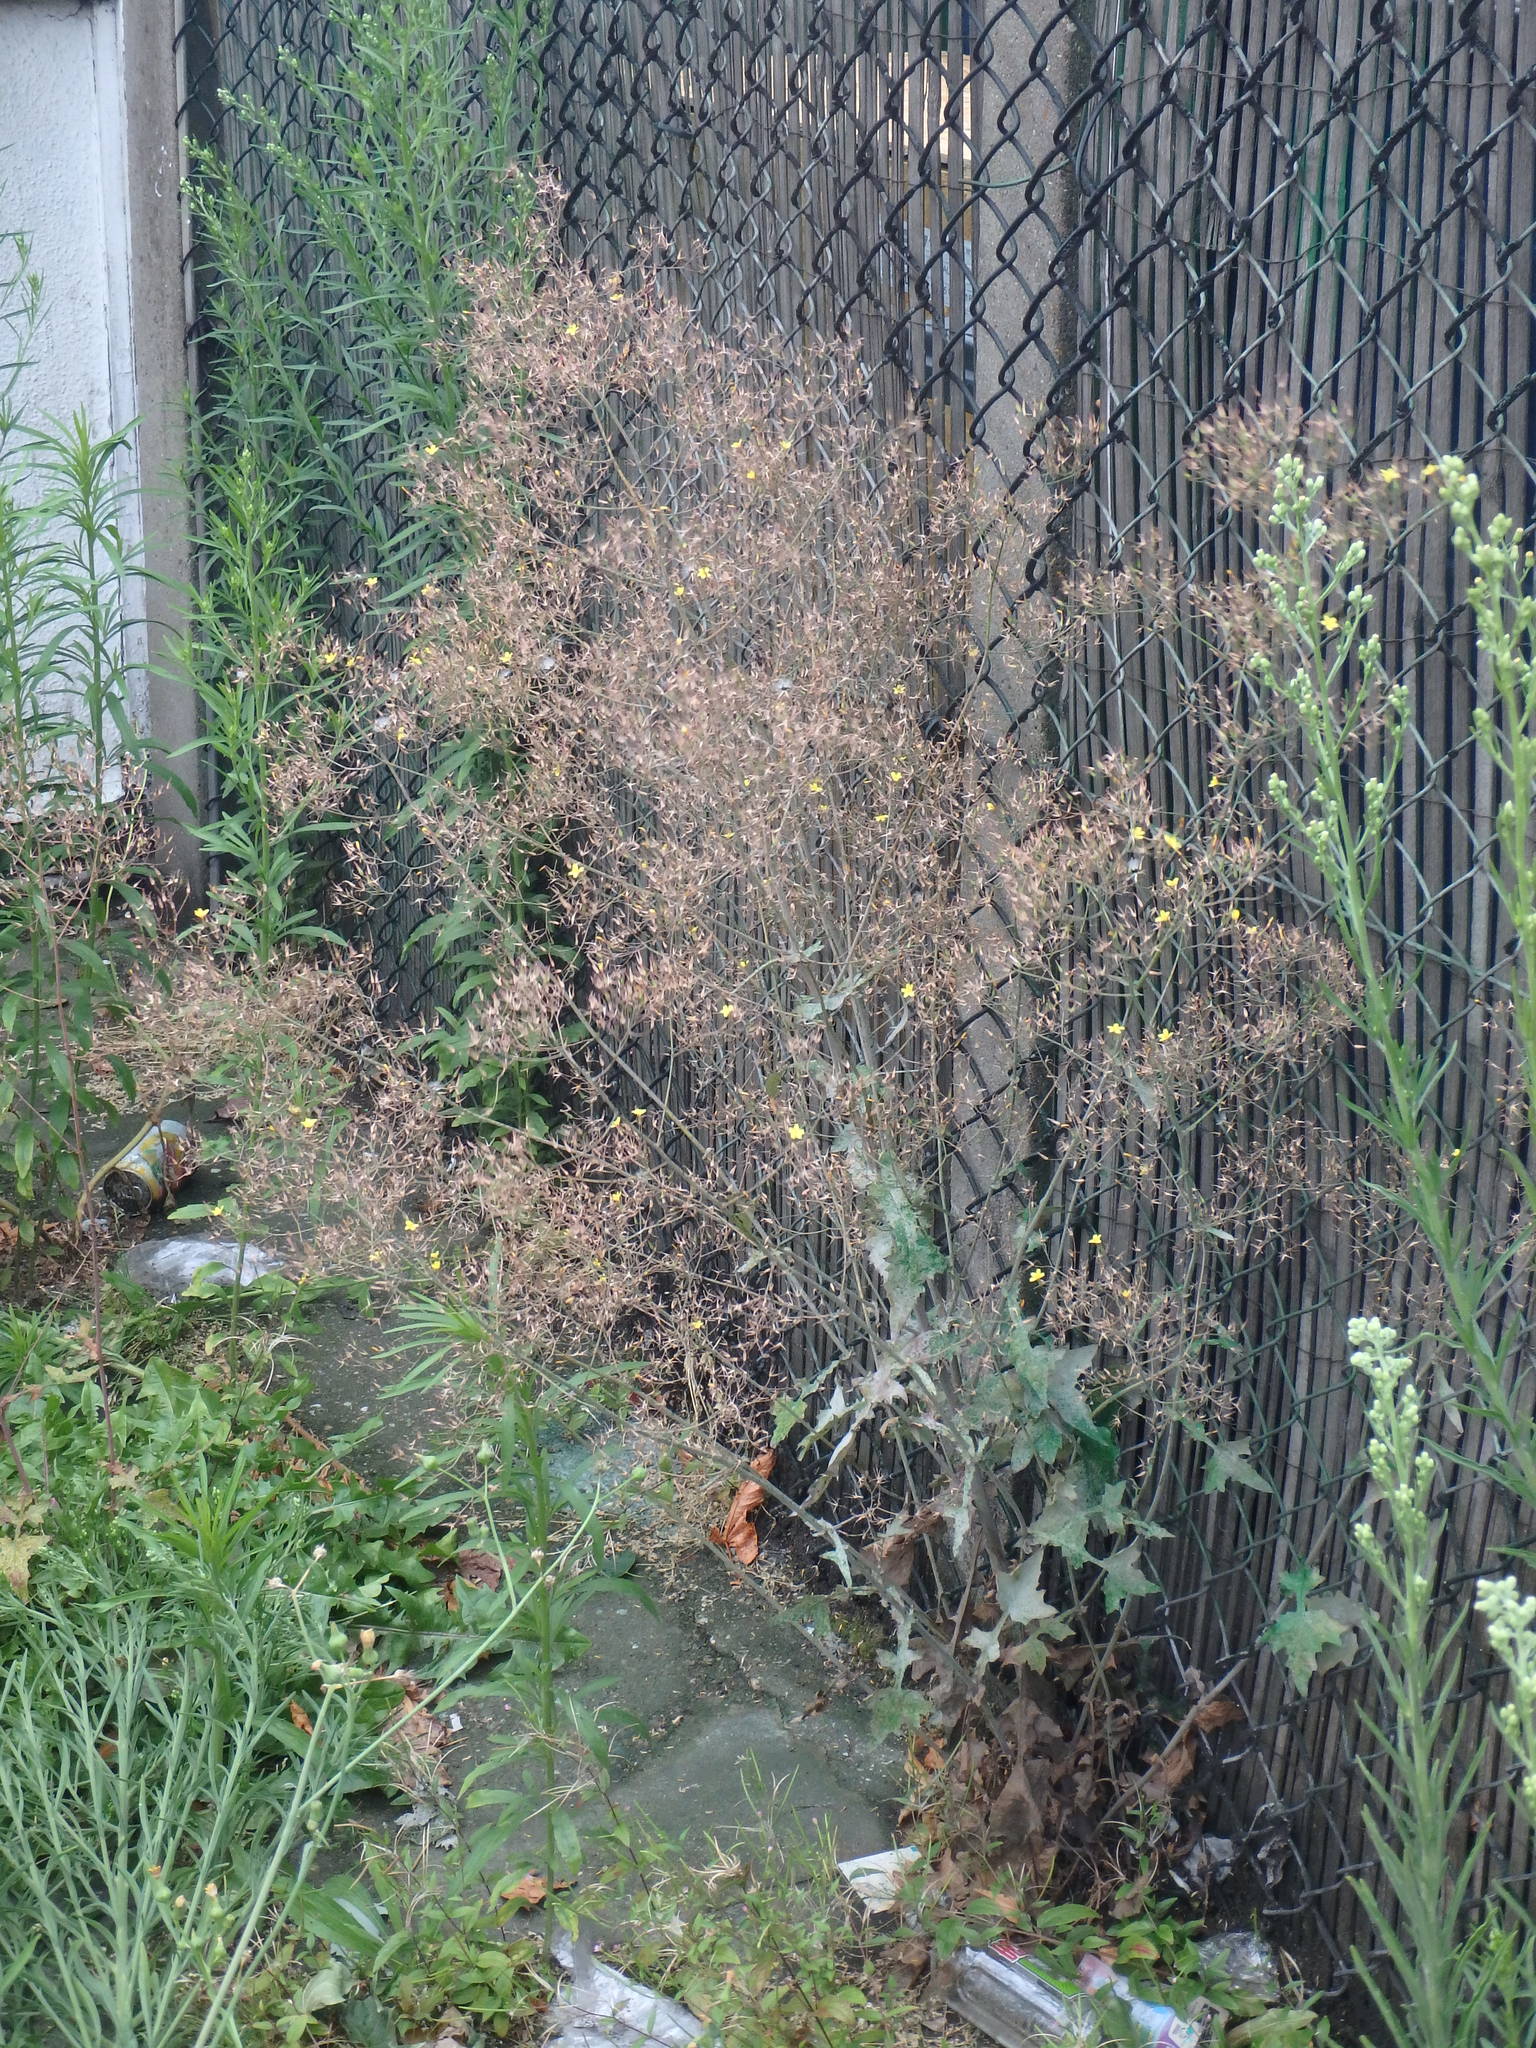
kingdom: Plantae
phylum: Tracheophyta
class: Magnoliopsida
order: Asterales
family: Asteraceae
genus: Mycelis
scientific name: Mycelis muralis
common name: Wall lettuce
